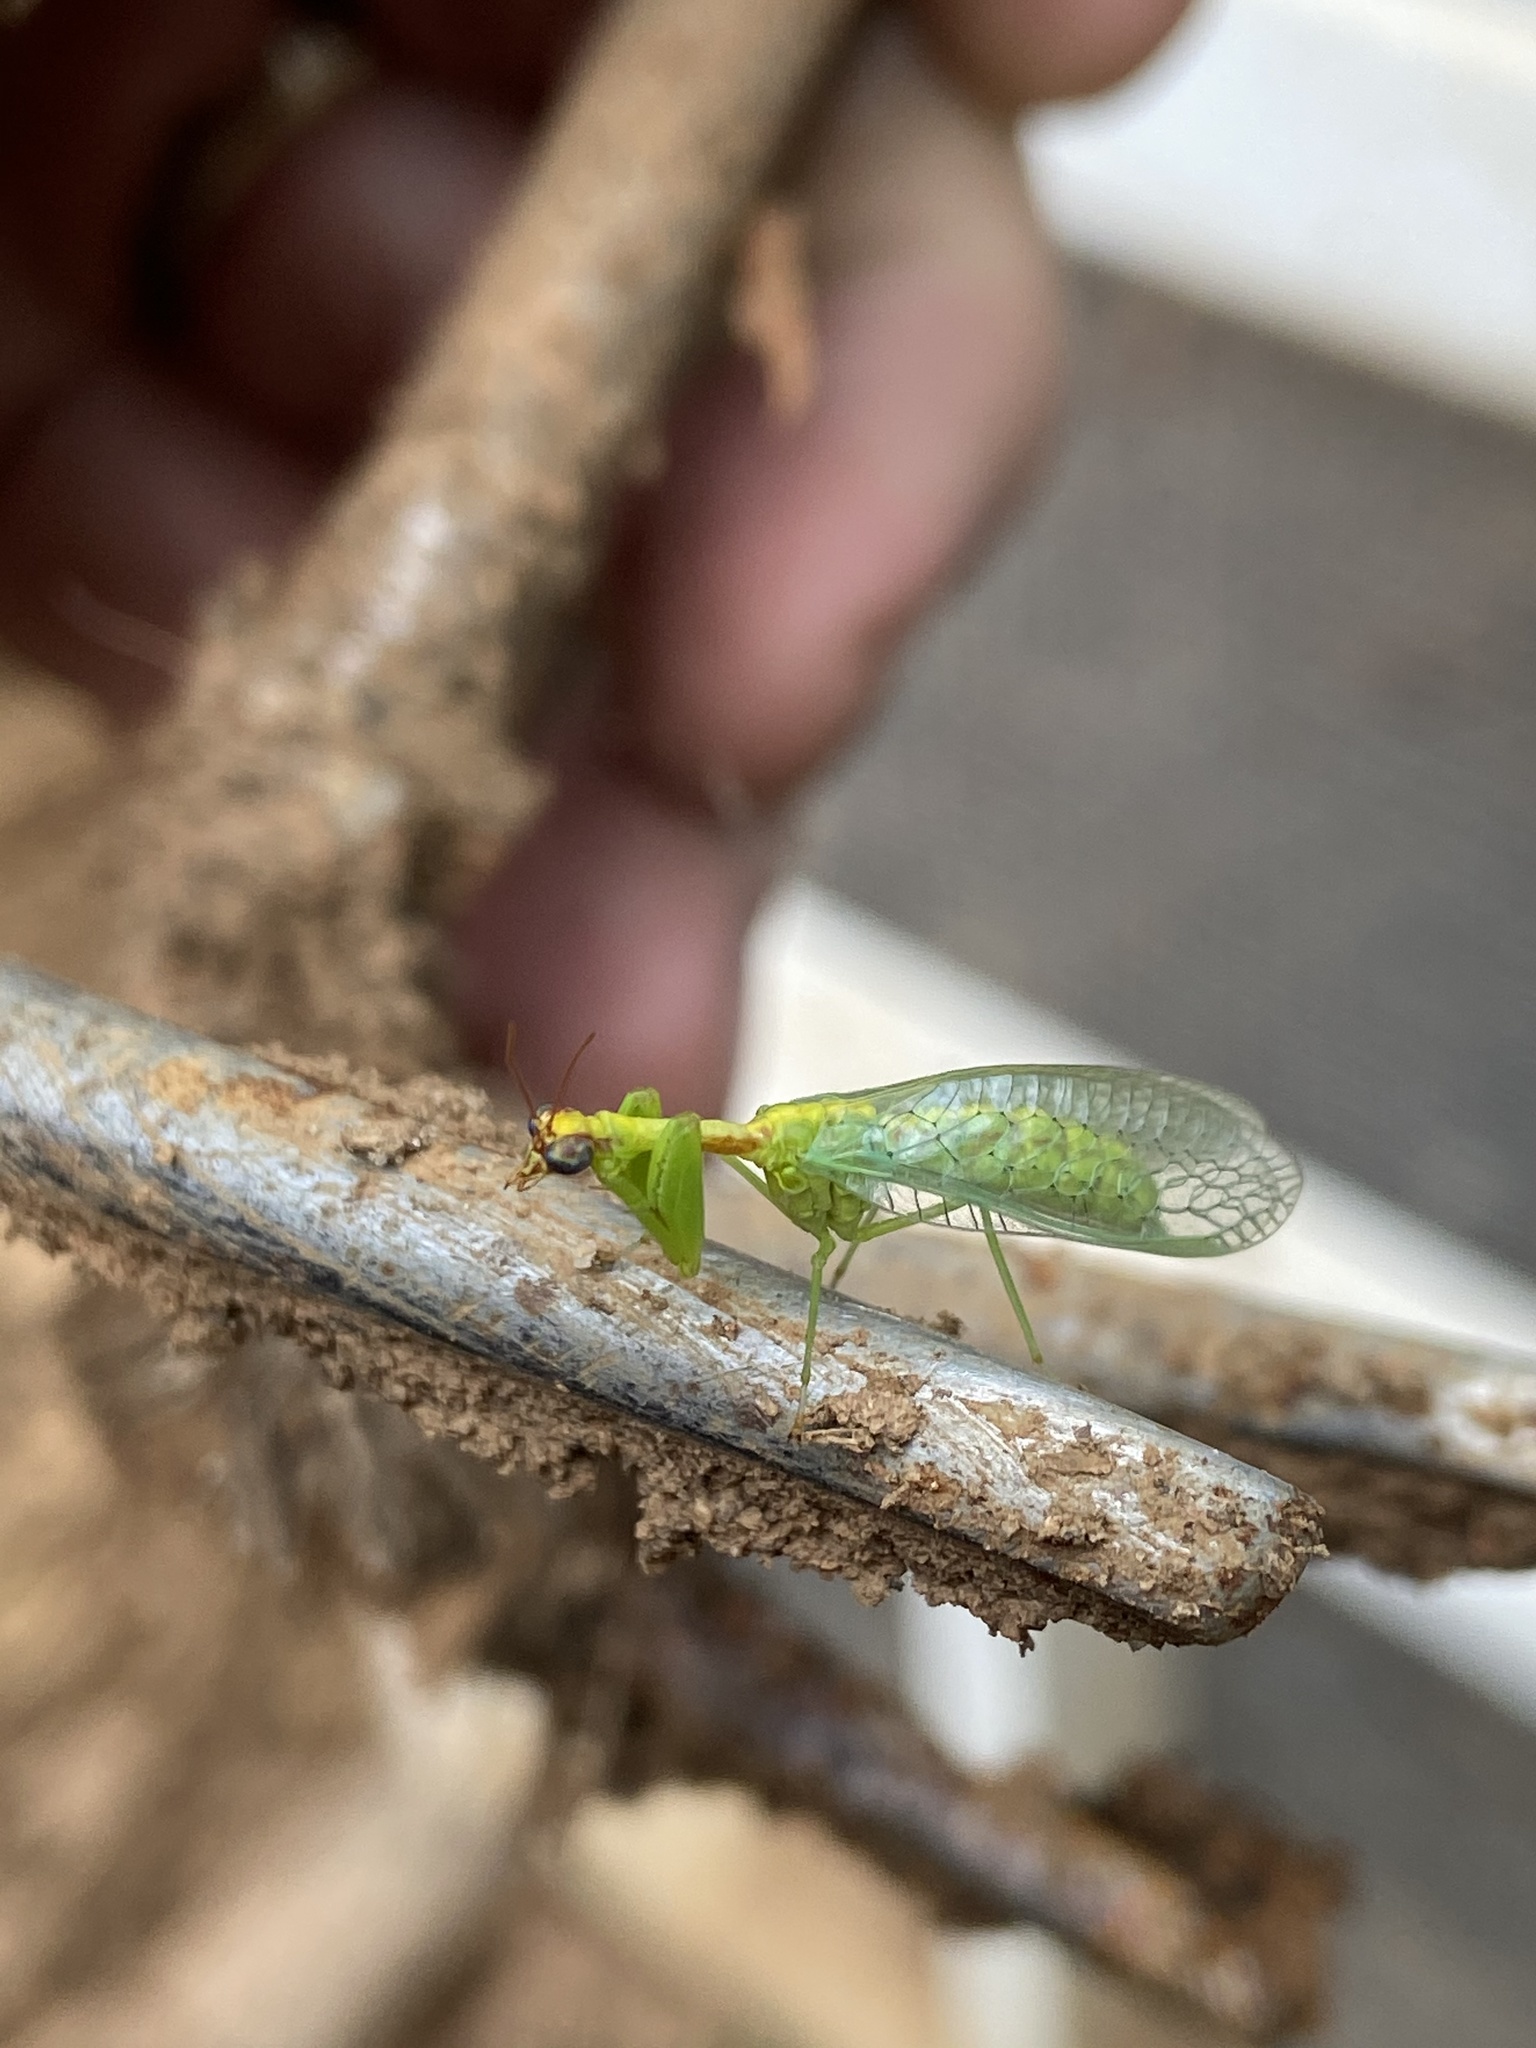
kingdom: Animalia
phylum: Arthropoda
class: Insecta
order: Neuroptera
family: Mantispidae
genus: Zeugomantispa
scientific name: Zeugomantispa minuta
